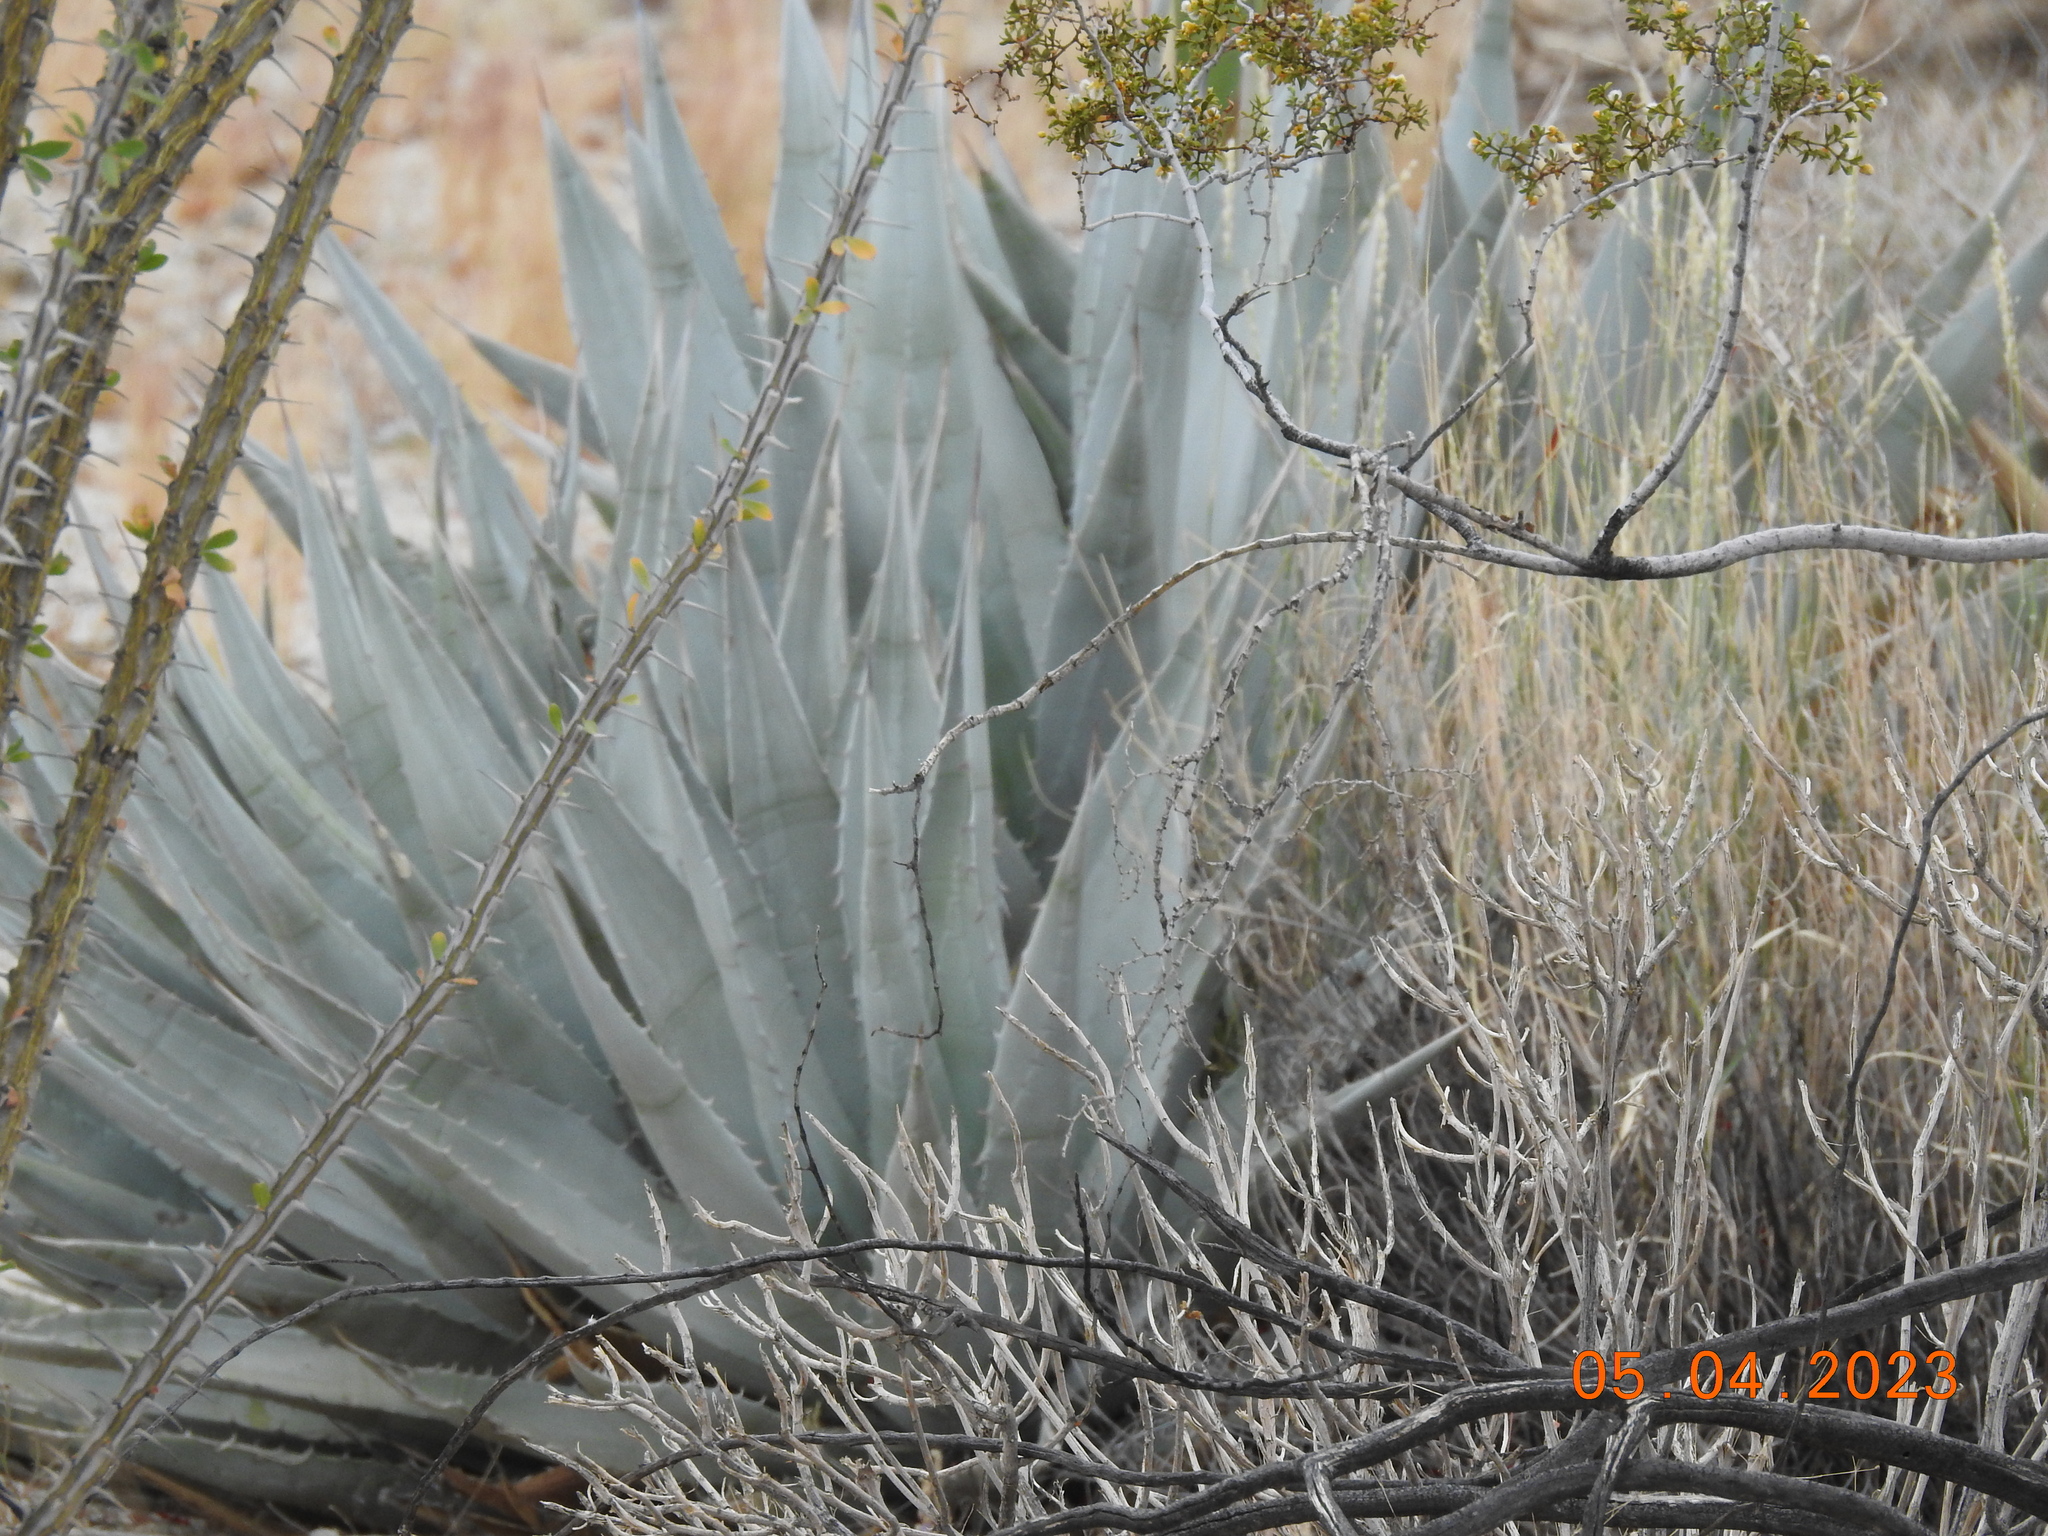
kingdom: Plantae
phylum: Tracheophyta
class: Liliopsida
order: Asparagales
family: Asparagaceae
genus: Agave
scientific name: Agave deserti
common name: Desert agave
